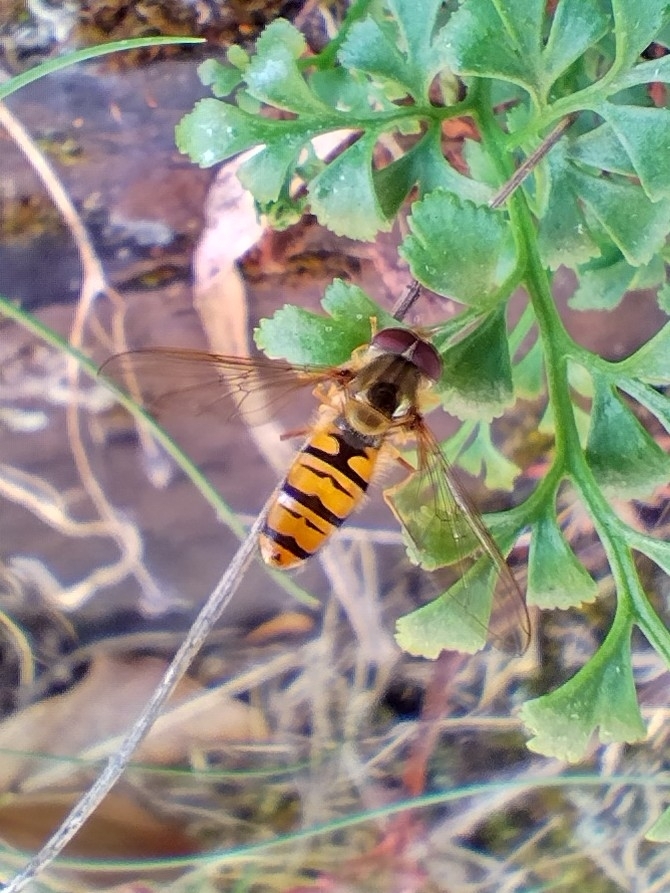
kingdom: Animalia
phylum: Arthropoda
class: Insecta
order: Diptera
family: Syrphidae
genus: Episyrphus
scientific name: Episyrphus balteatus
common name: Marmalade hoverfly
